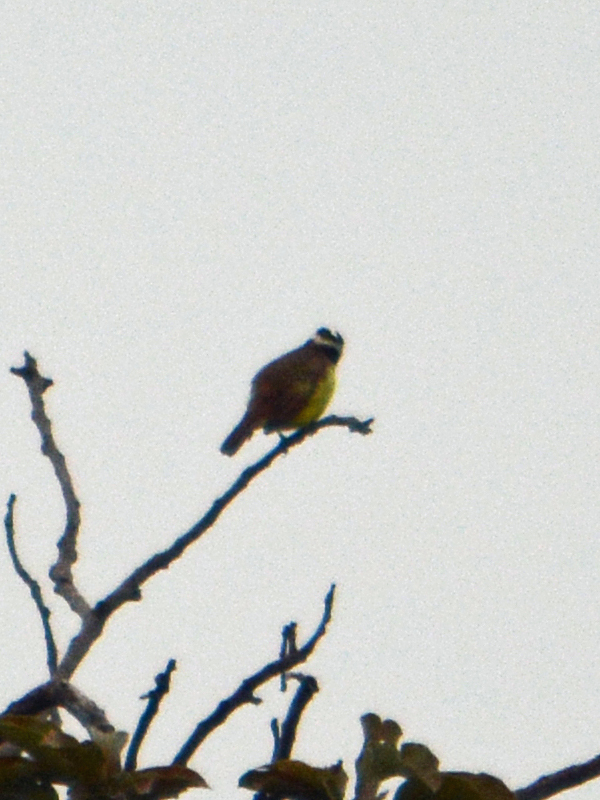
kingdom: Animalia
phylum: Chordata
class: Aves
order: Passeriformes
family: Tyrannidae
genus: Pitangus
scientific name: Pitangus sulphuratus
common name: Great kiskadee
